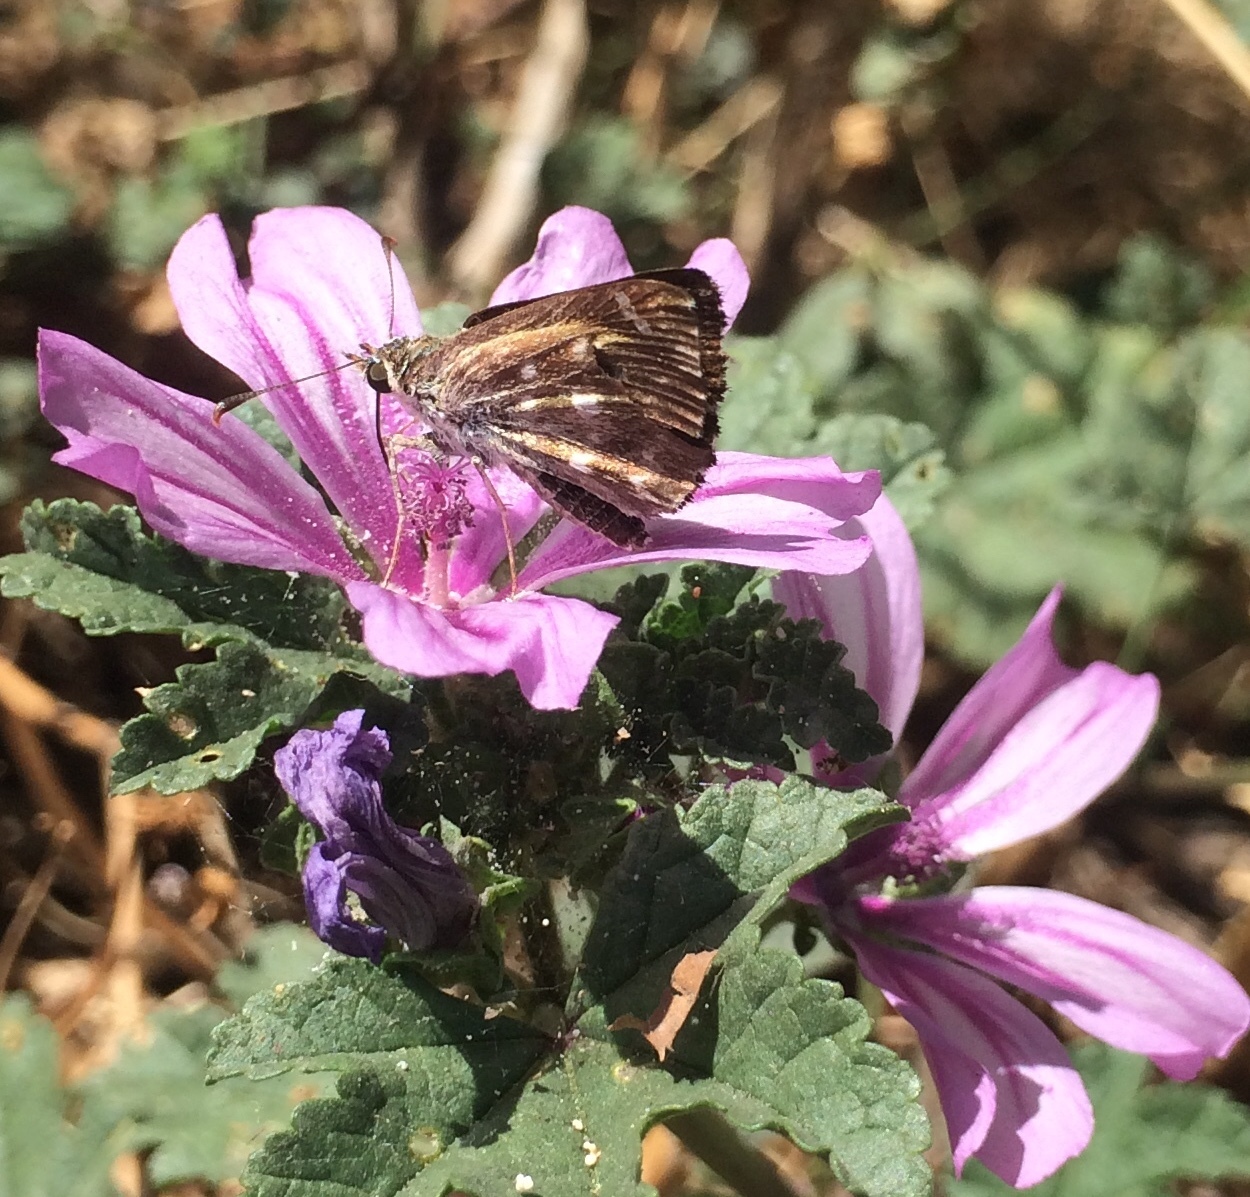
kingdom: Animalia
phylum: Arthropoda
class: Insecta
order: Lepidoptera
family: Hesperiidae
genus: Carcharodus
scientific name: Carcharodus alceae
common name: Mallow skipper
